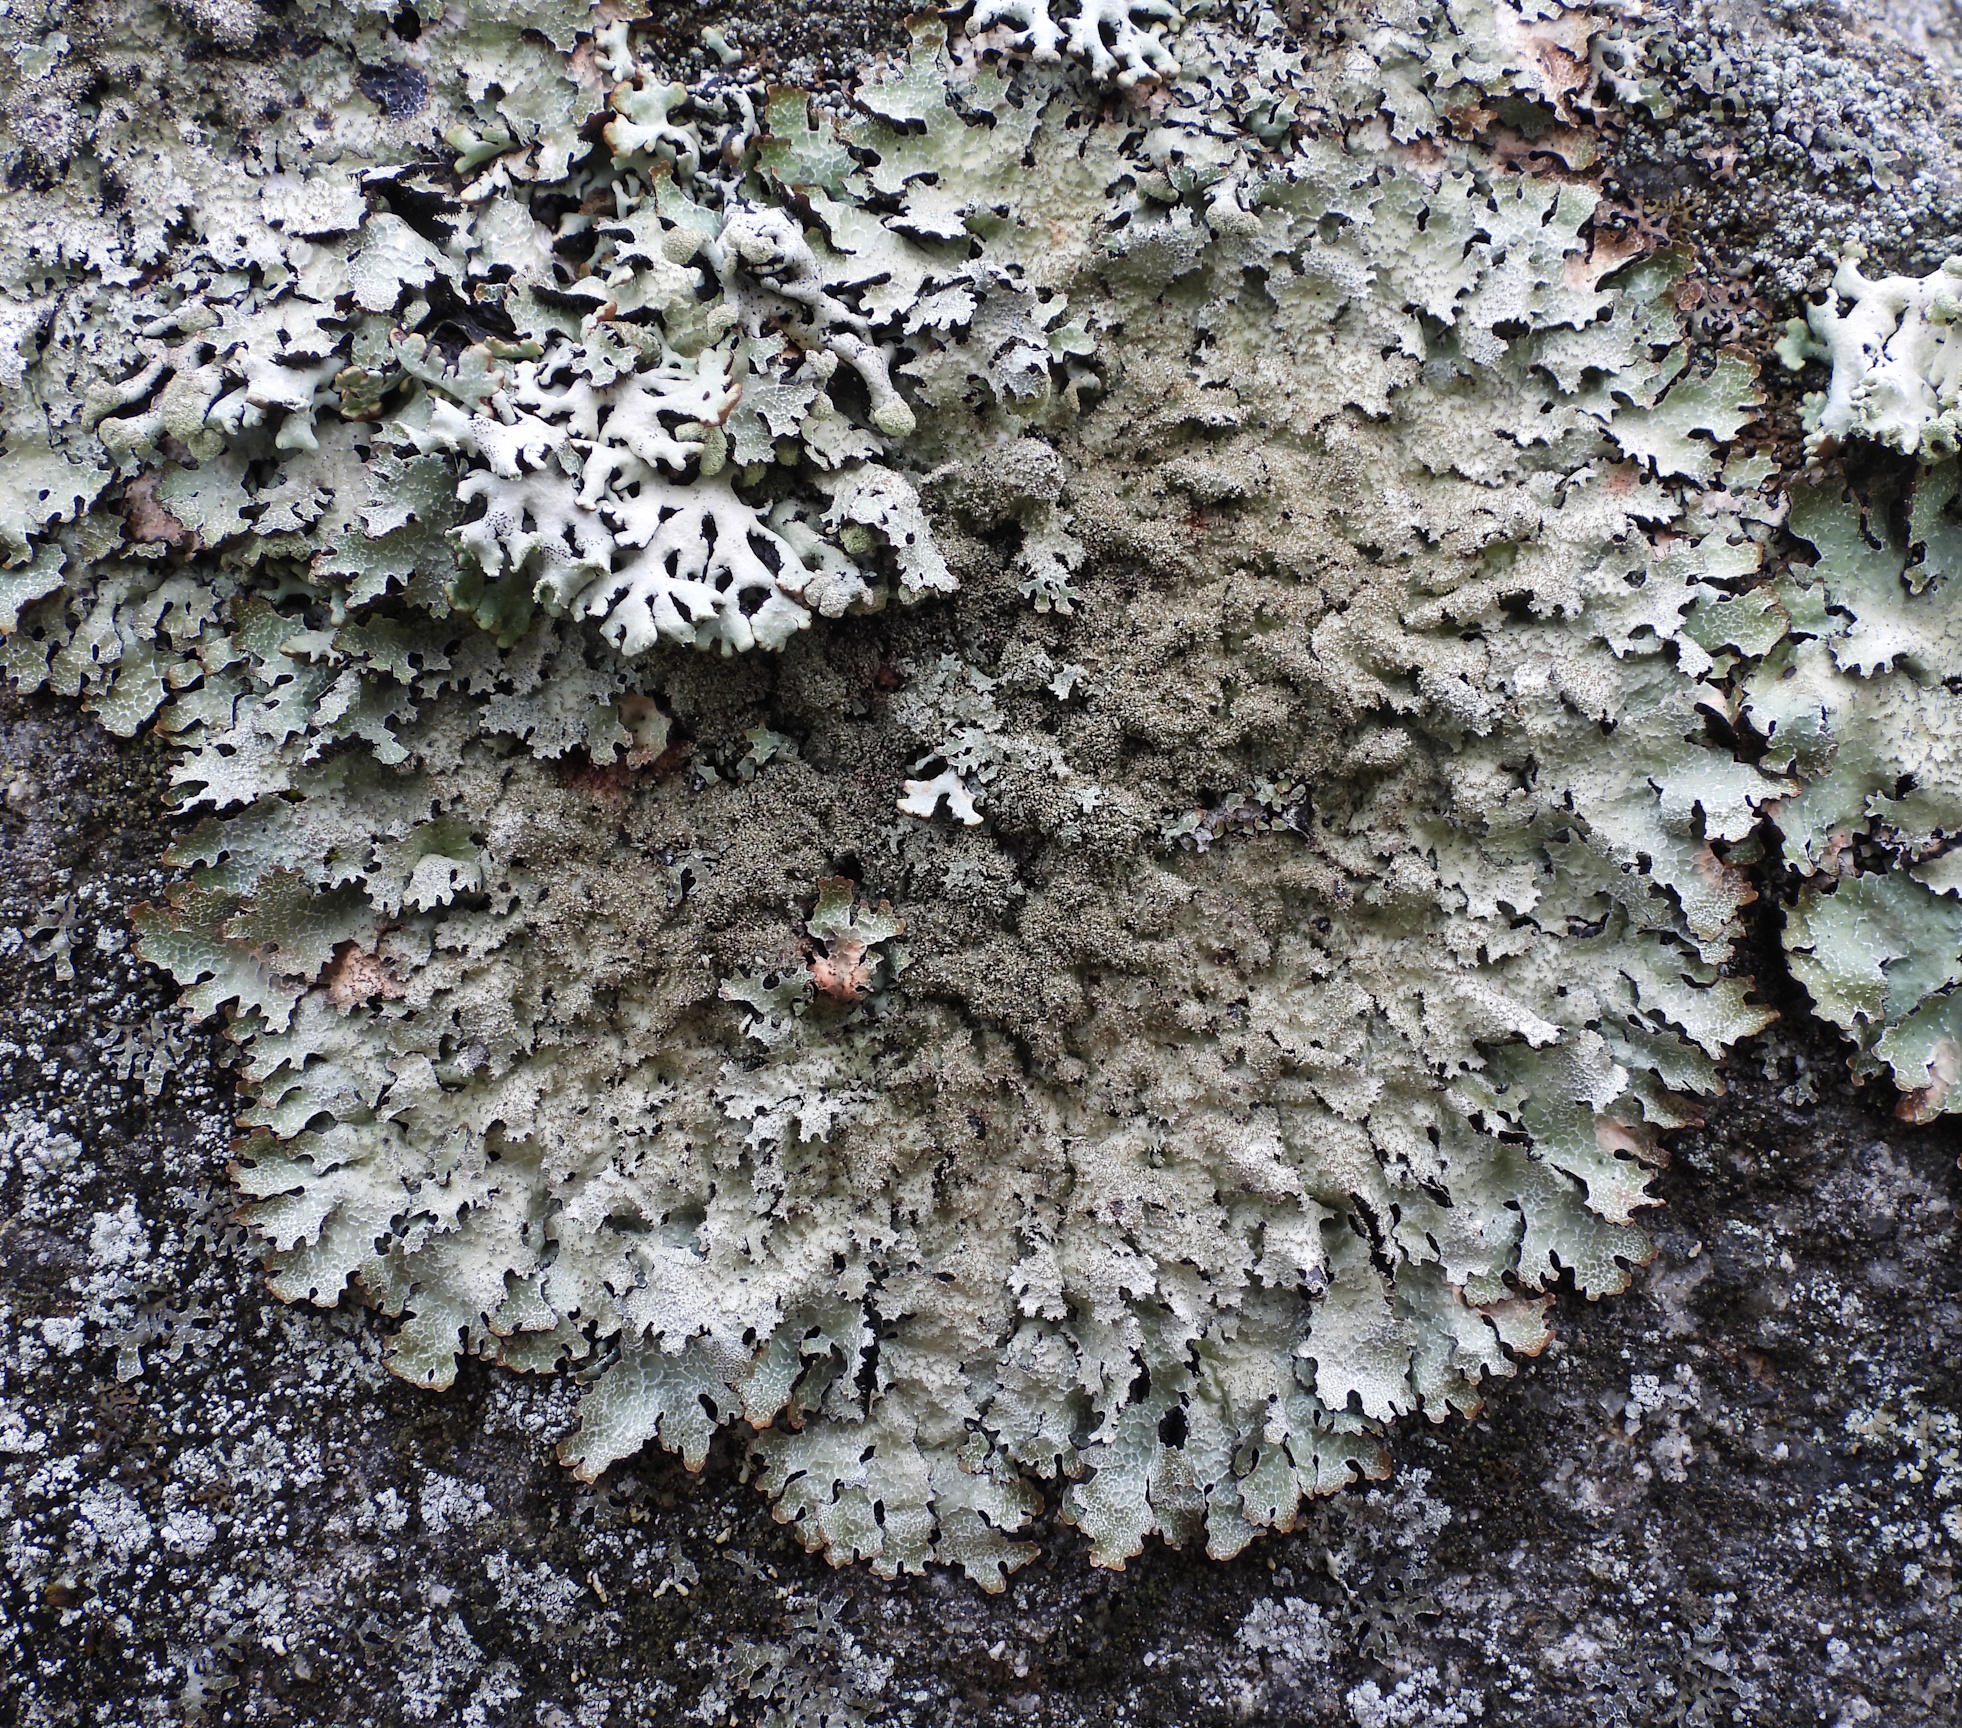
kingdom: Fungi
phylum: Ascomycota
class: Lecanoromycetes
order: Lecanorales
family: Parmeliaceae
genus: Parmelia
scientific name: Parmelia saxatilis
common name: Salted shield lichen
